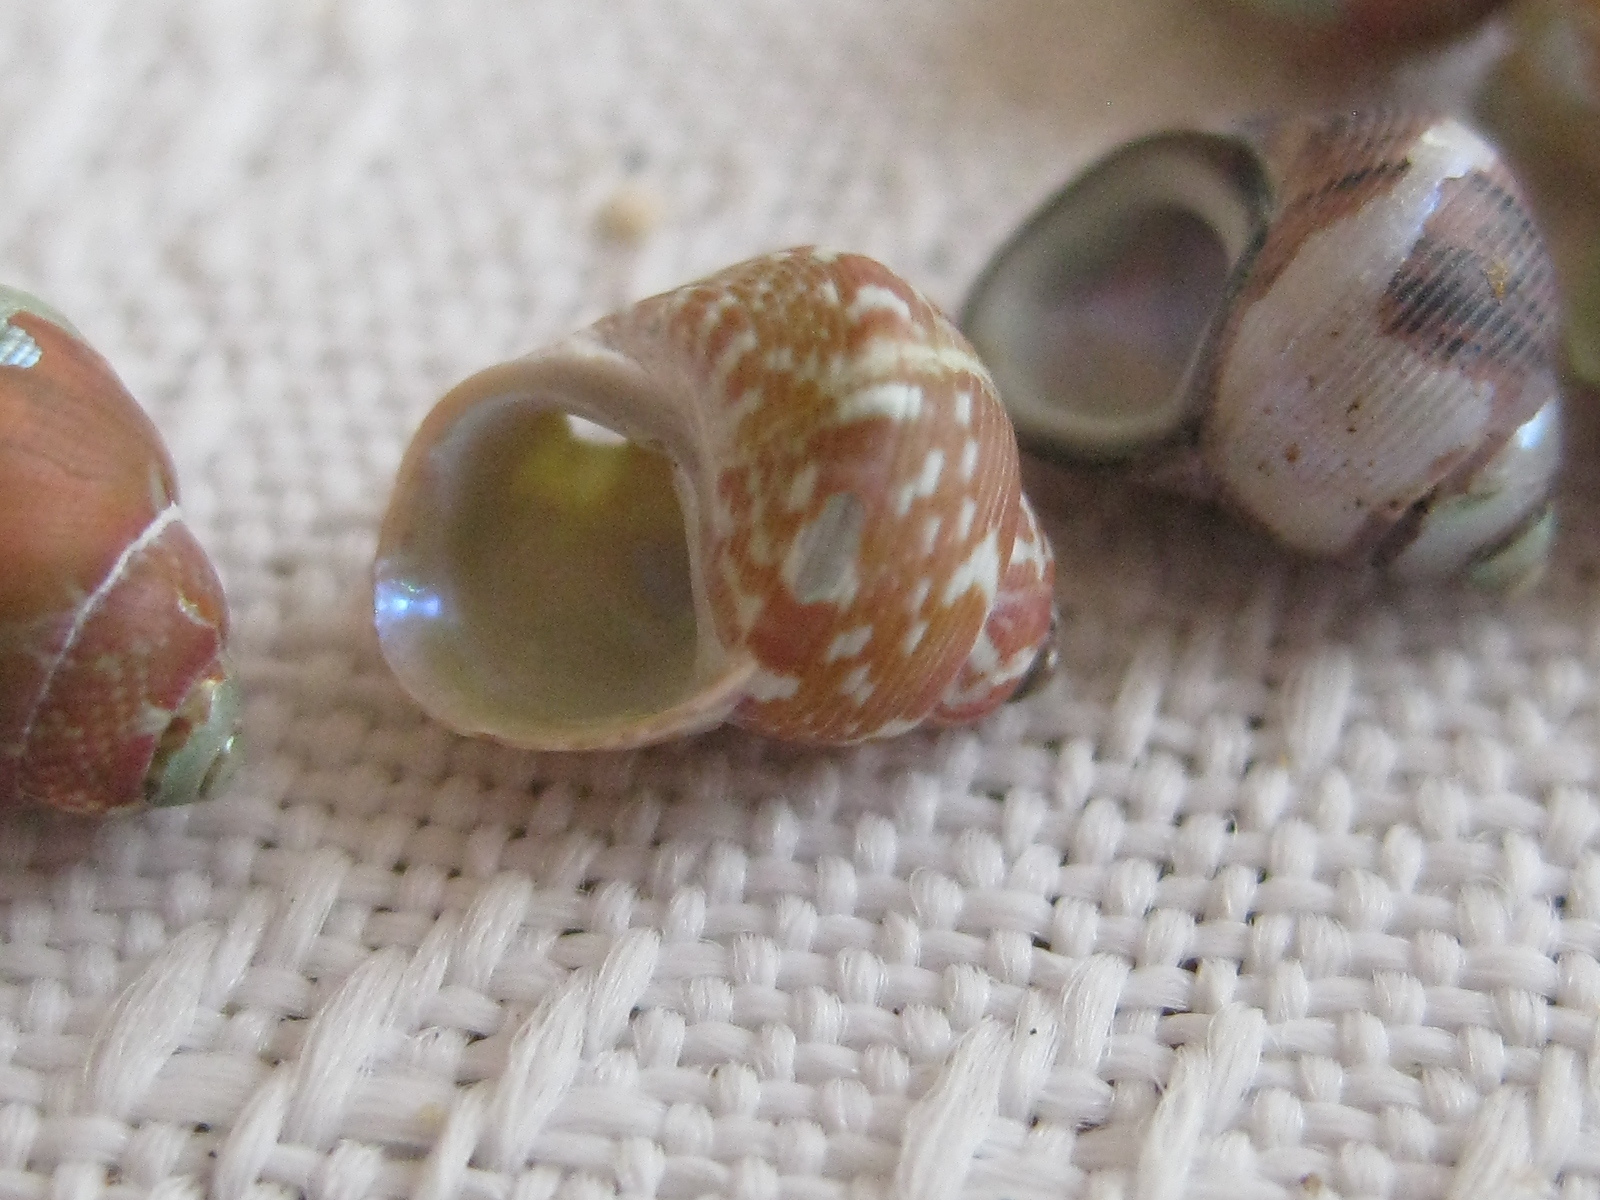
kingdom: Animalia
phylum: Mollusca
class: Gastropoda
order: Trochida
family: Trochidae
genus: Cantharidus
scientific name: Cantharidus dilatatus
